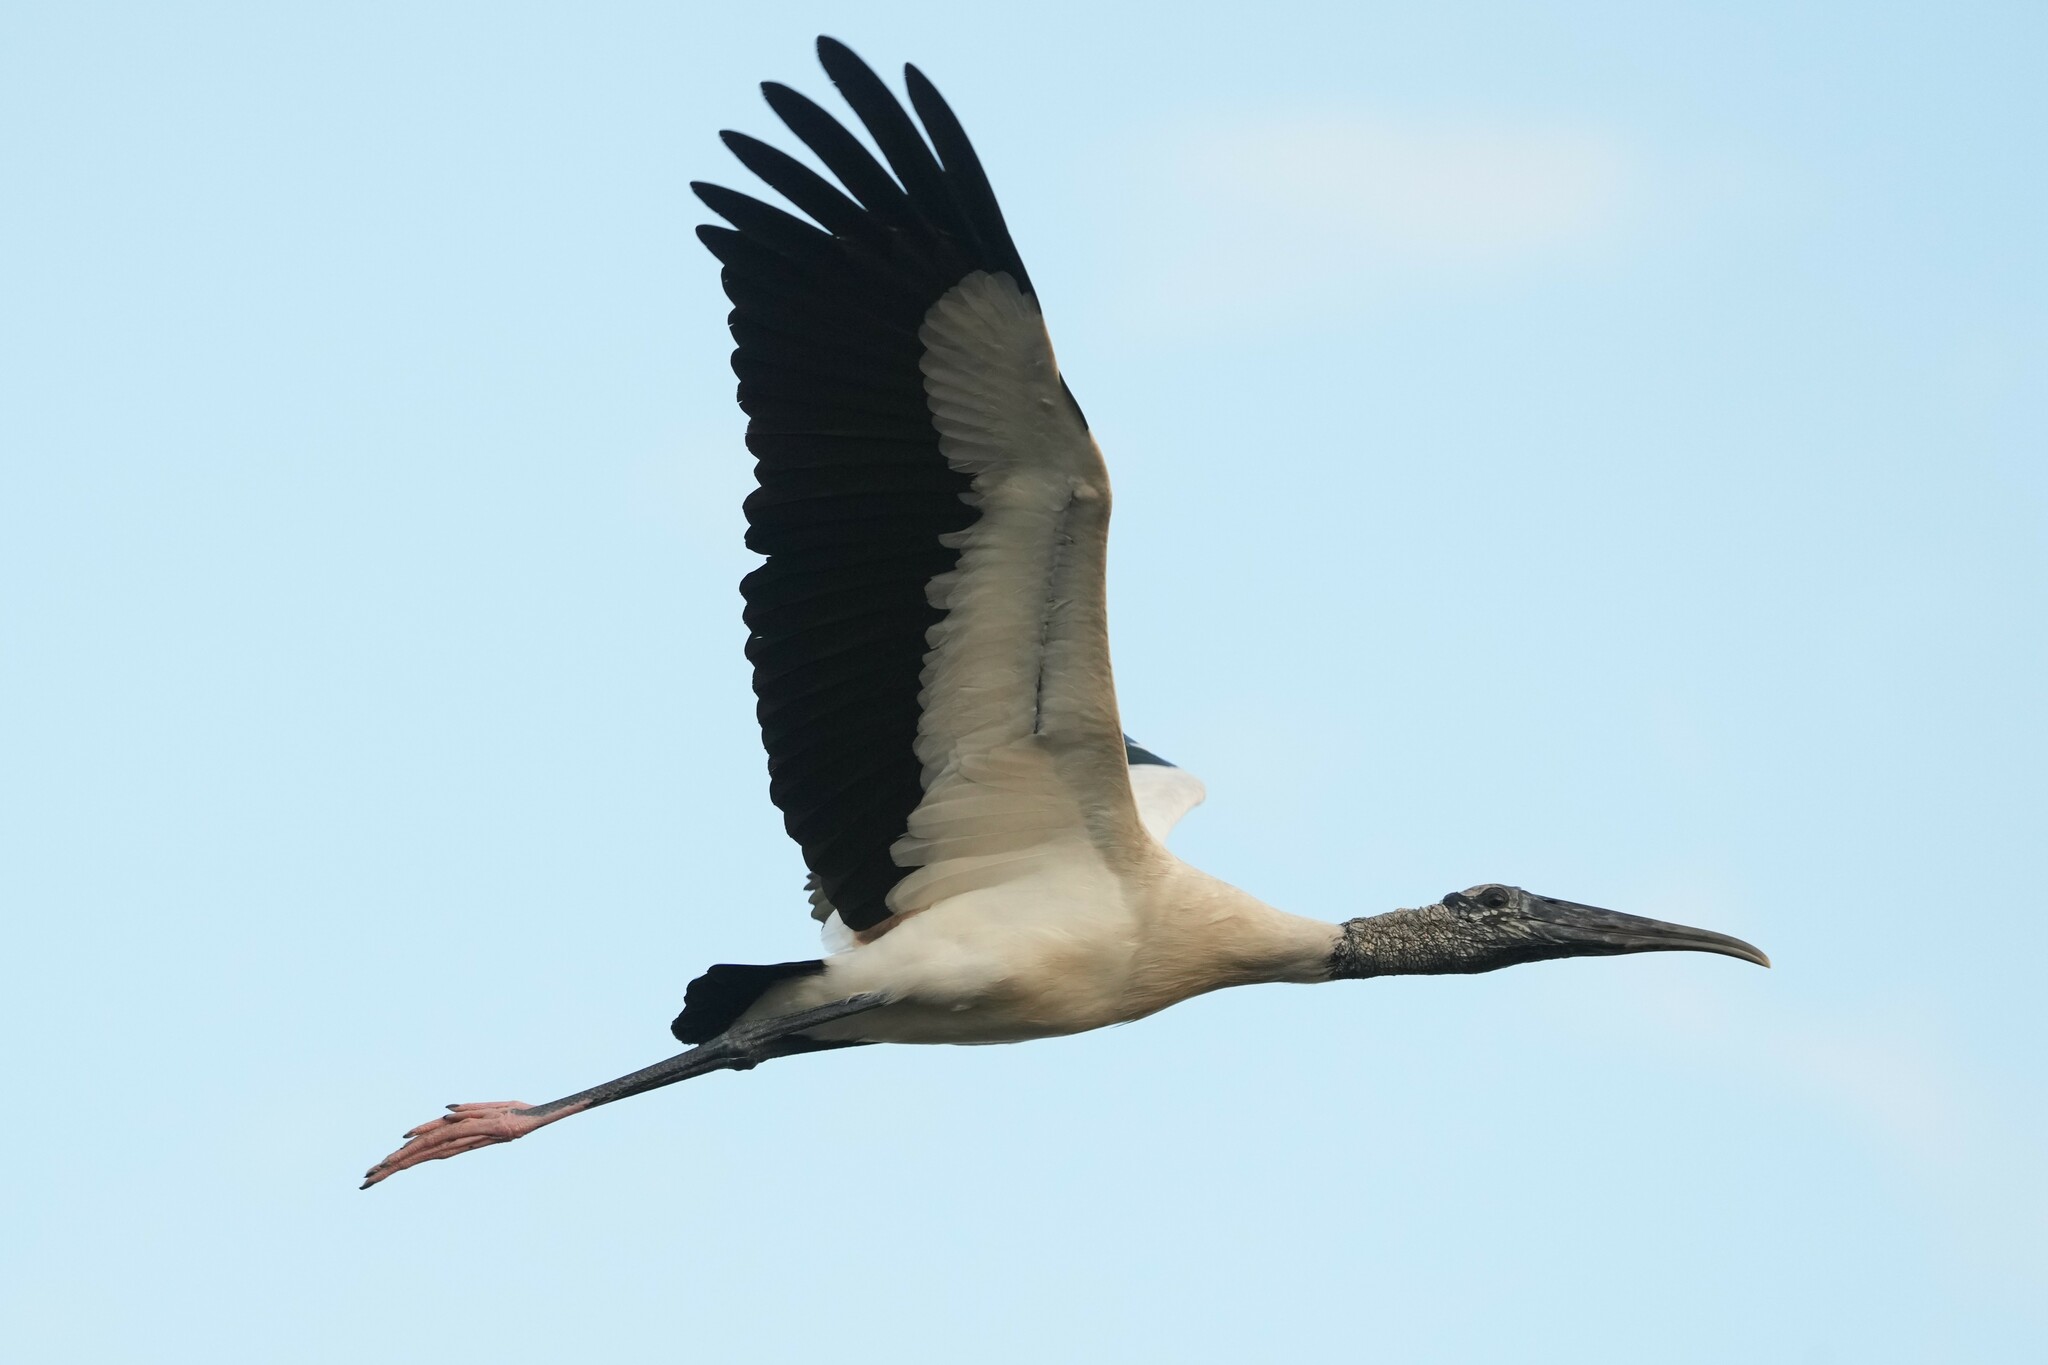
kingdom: Animalia
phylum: Chordata
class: Aves
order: Ciconiiformes
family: Ciconiidae
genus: Mycteria
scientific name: Mycteria americana
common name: Wood stork
